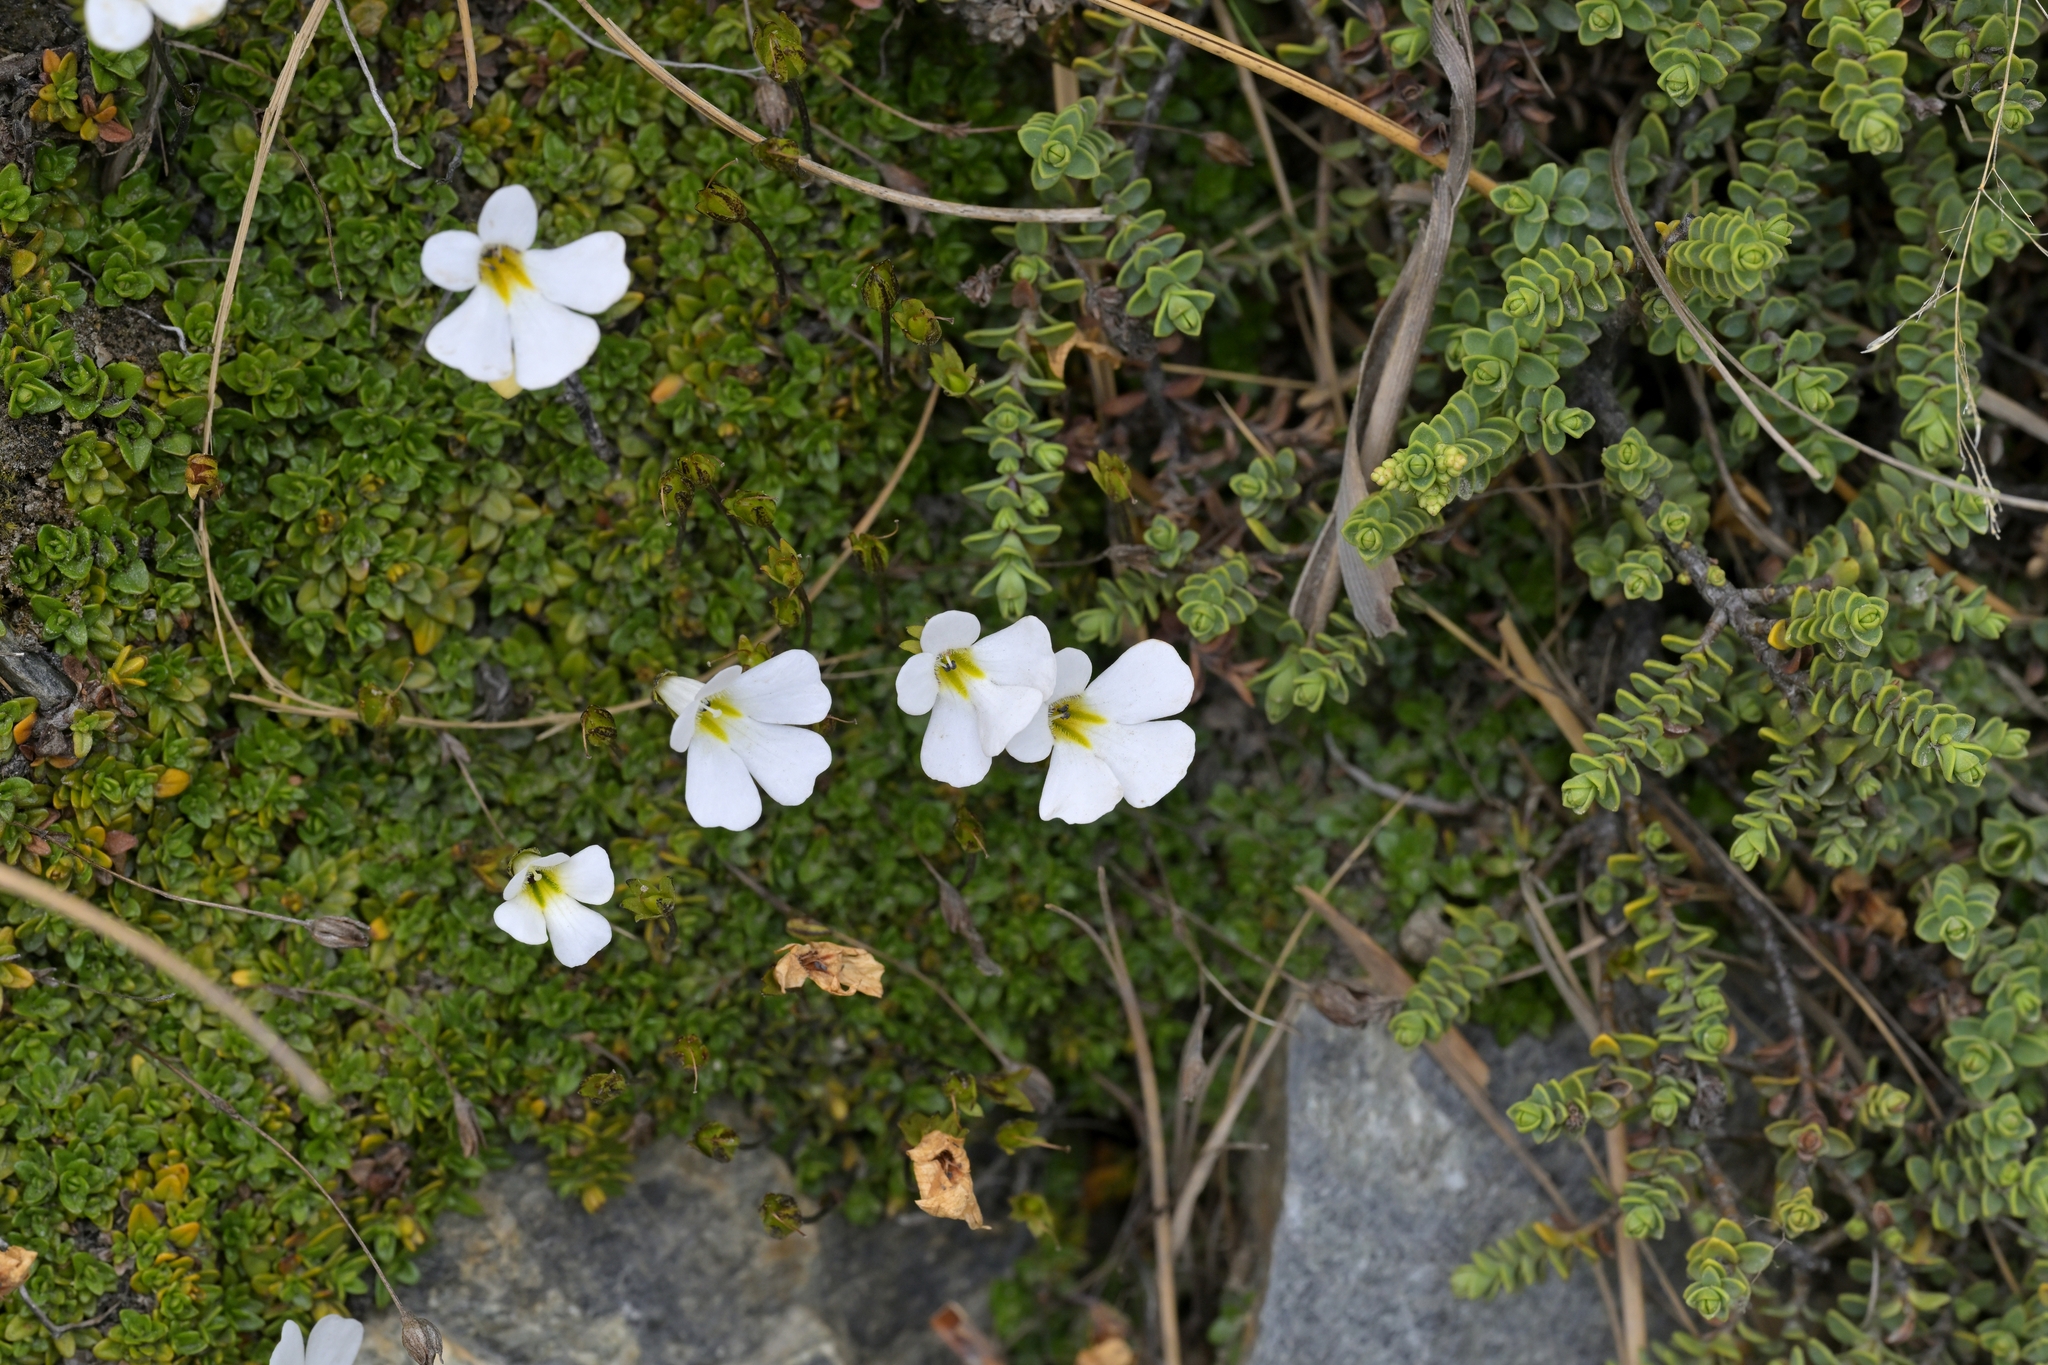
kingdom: Plantae
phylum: Tracheophyta
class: Magnoliopsida
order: Lamiales
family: Plantaginaceae
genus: Ourisia
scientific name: Ourisia caespitosa
